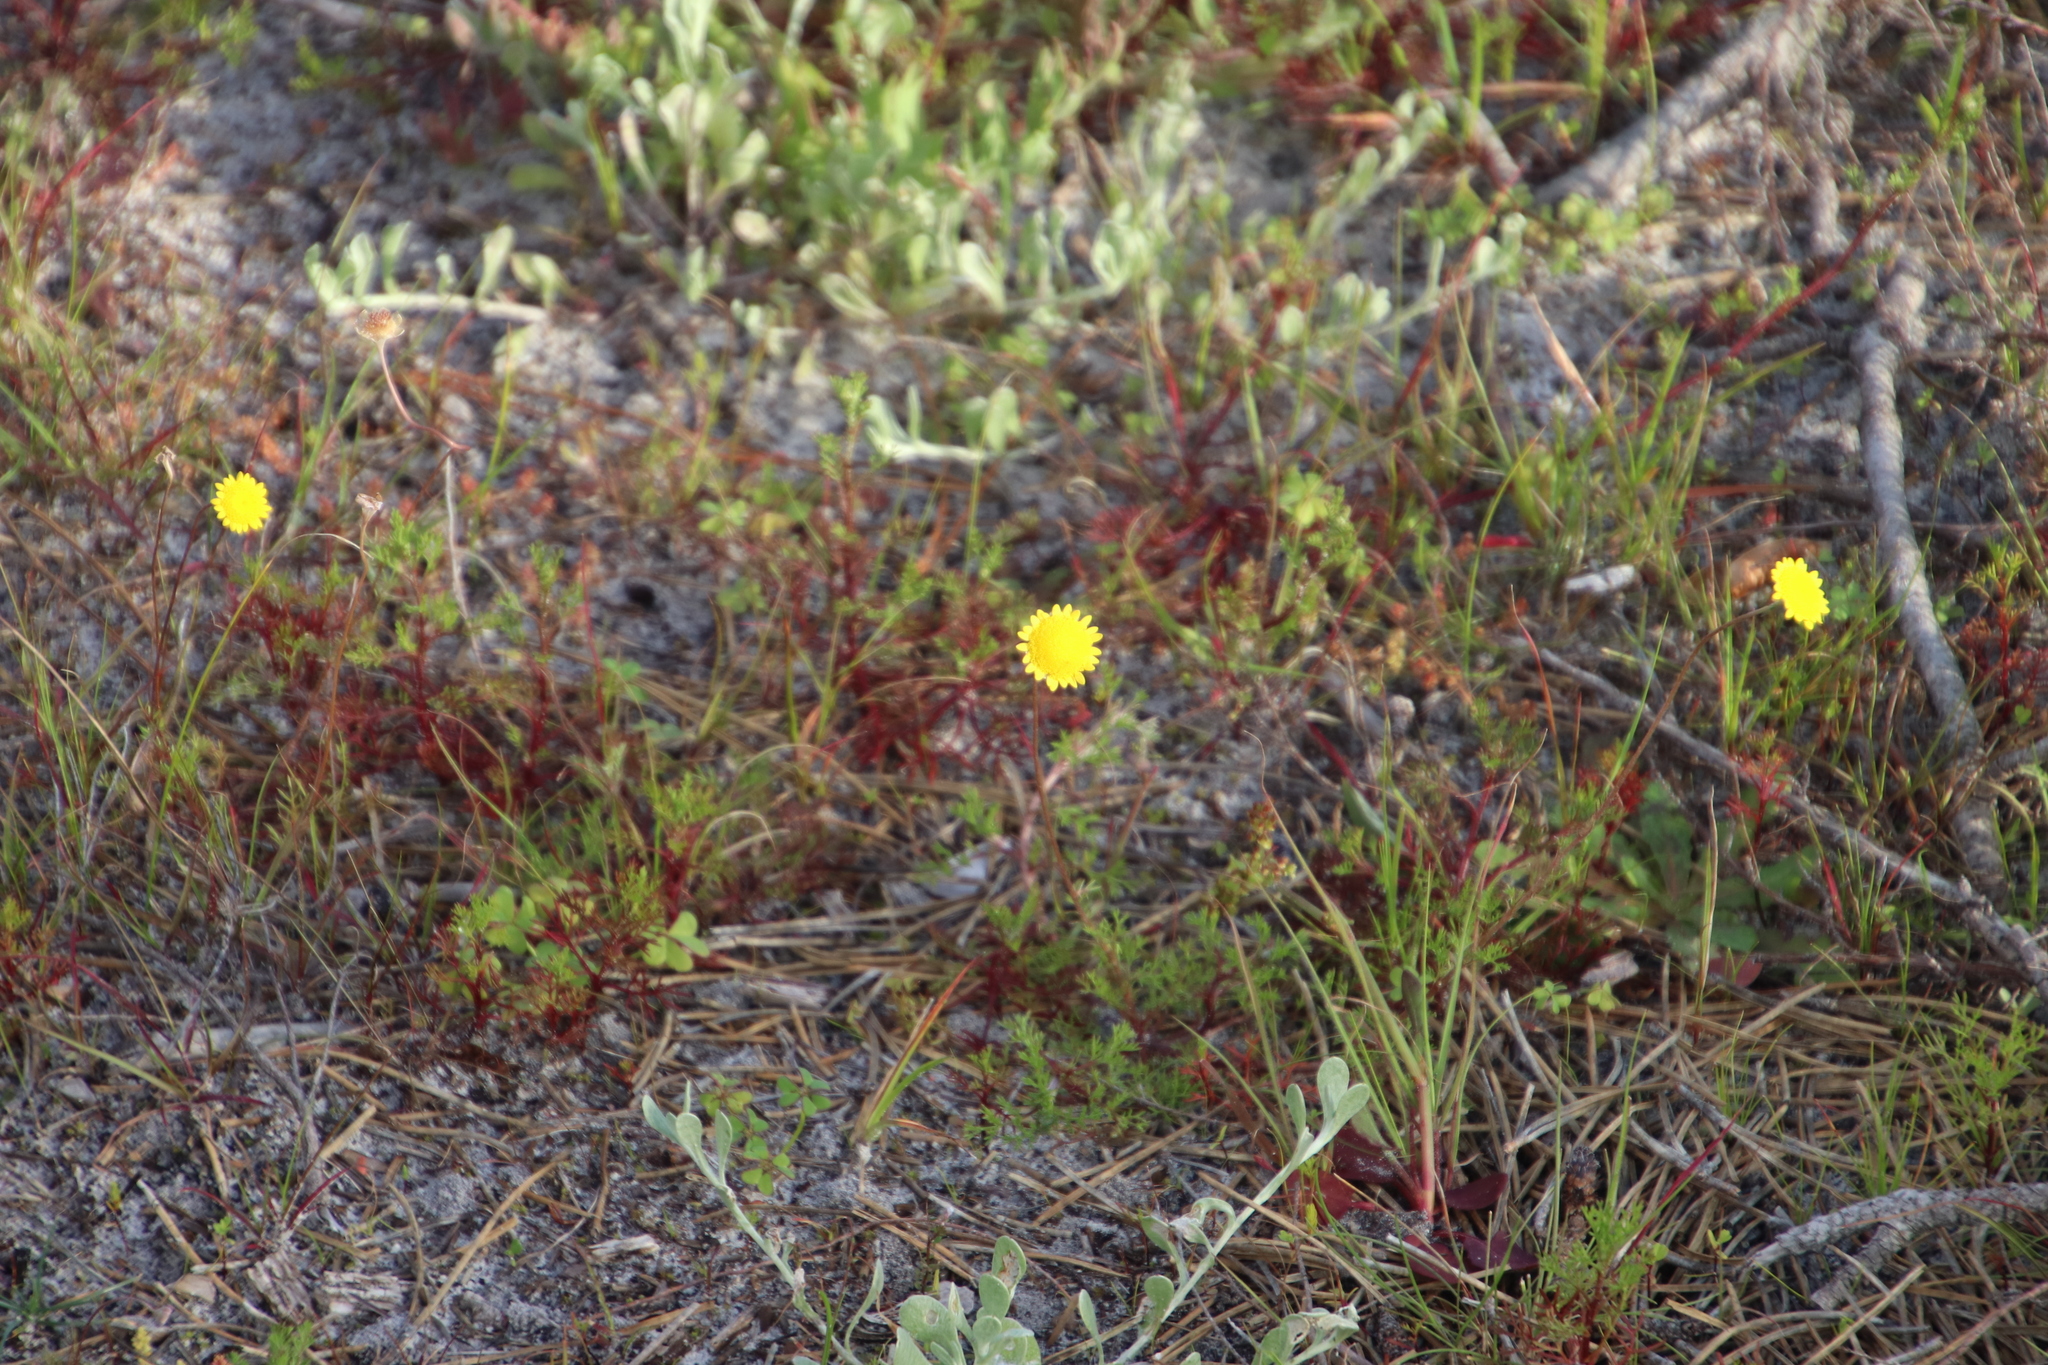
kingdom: Plantae
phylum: Tracheophyta
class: Magnoliopsida
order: Asterales
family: Asteraceae
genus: Cotula
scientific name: Cotula pruinosa
